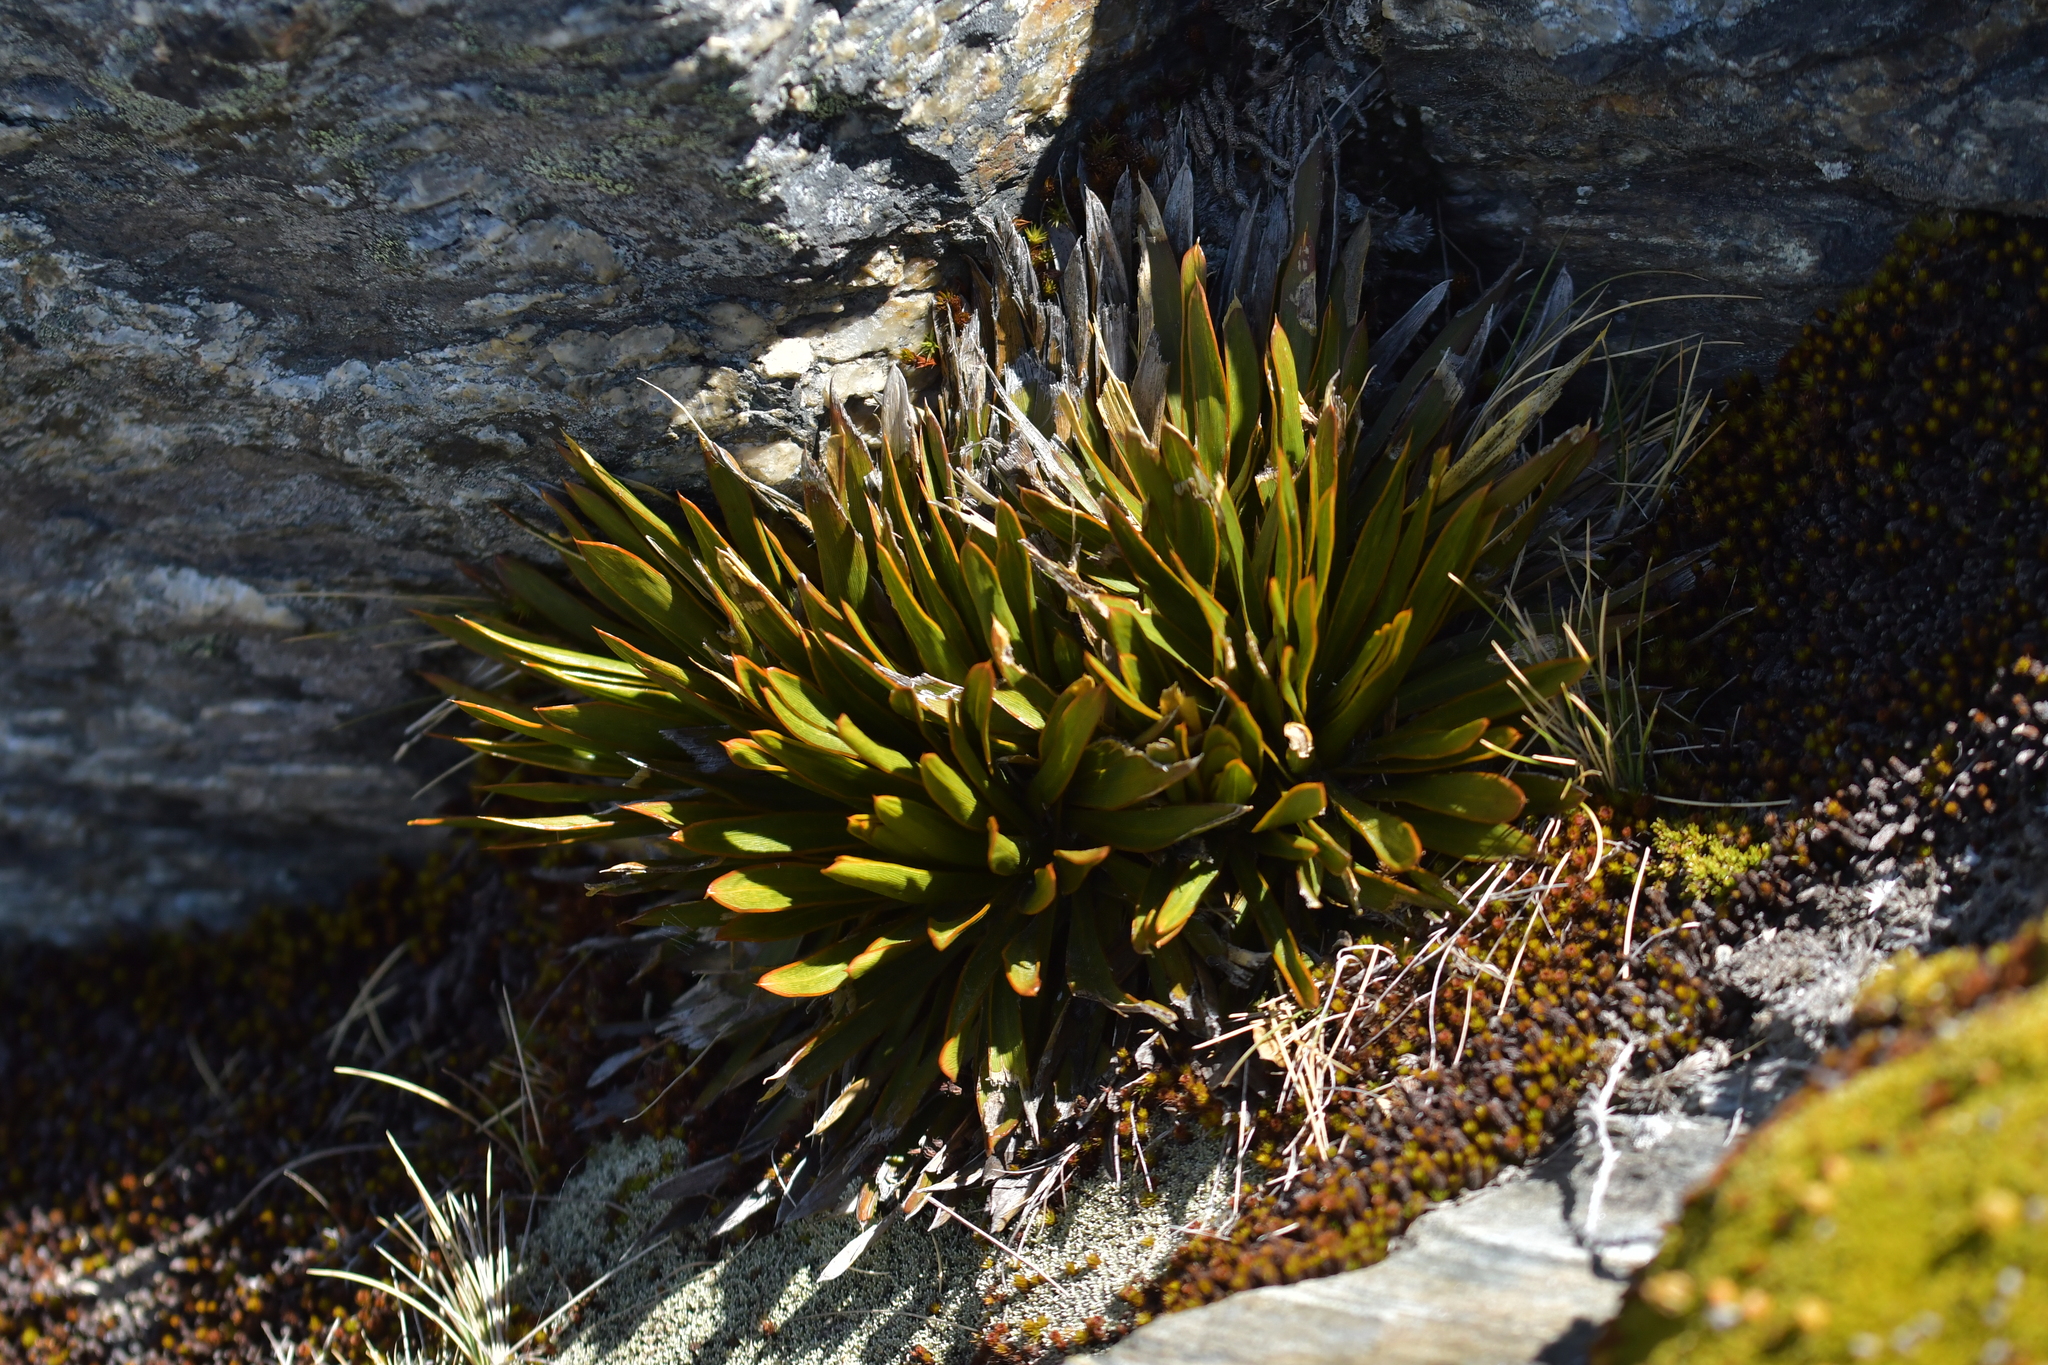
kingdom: Plantae
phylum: Tracheophyta
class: Magnoliopsida
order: Apiales
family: Apiaceae
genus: Aciphylla
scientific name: Aciphylla kirkii
